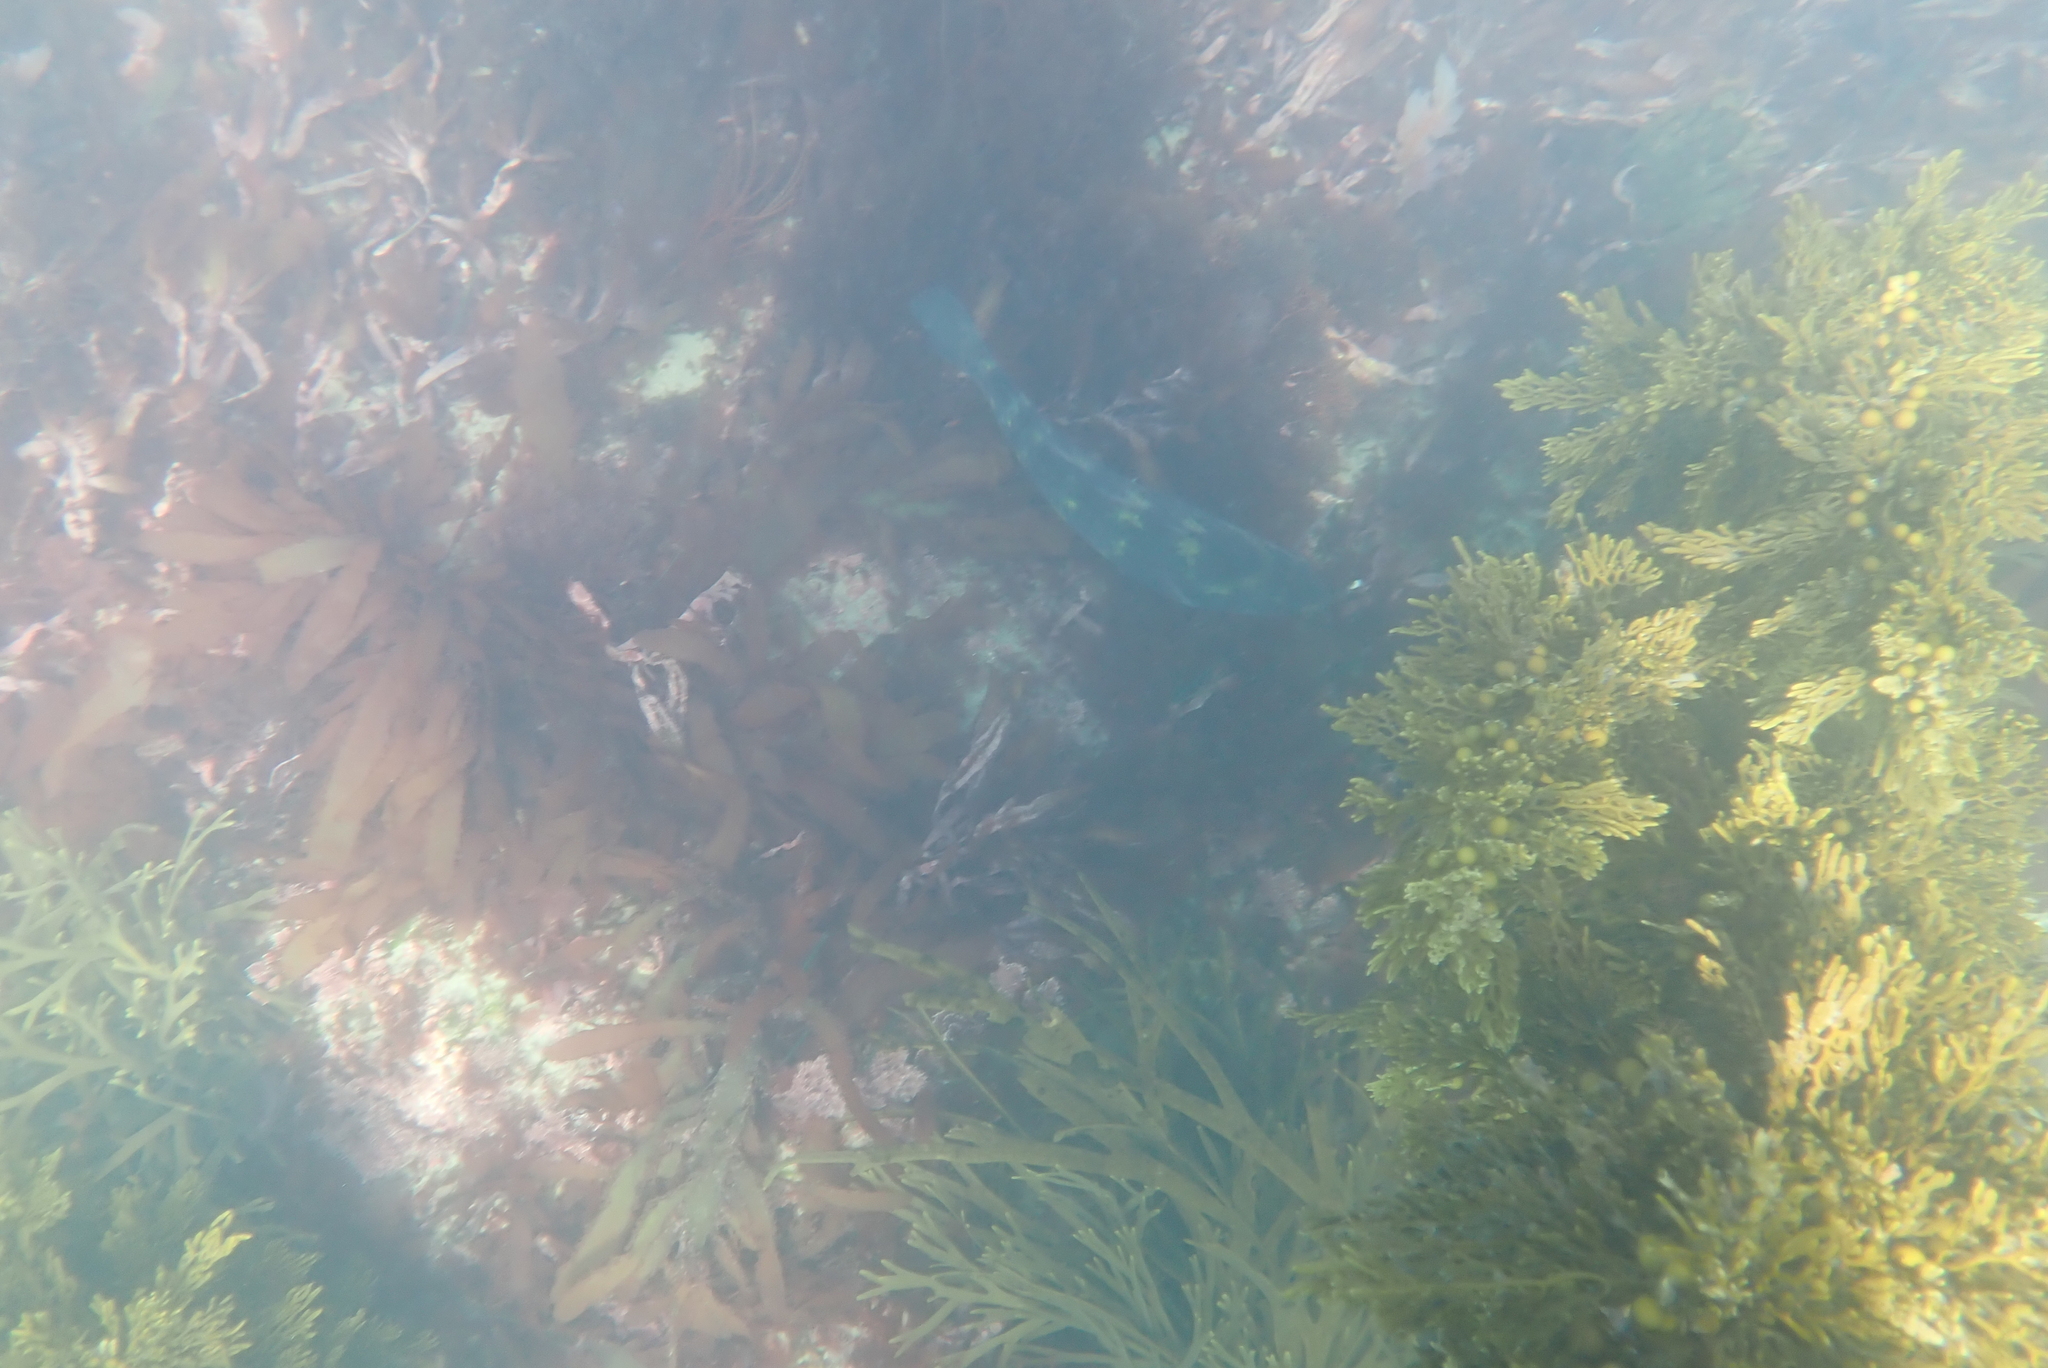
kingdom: Animalia
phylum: Chordata
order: Perciformes
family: Labridae
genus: Notolabrus
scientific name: Notolabrus fucicola
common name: Banded parrotfish
